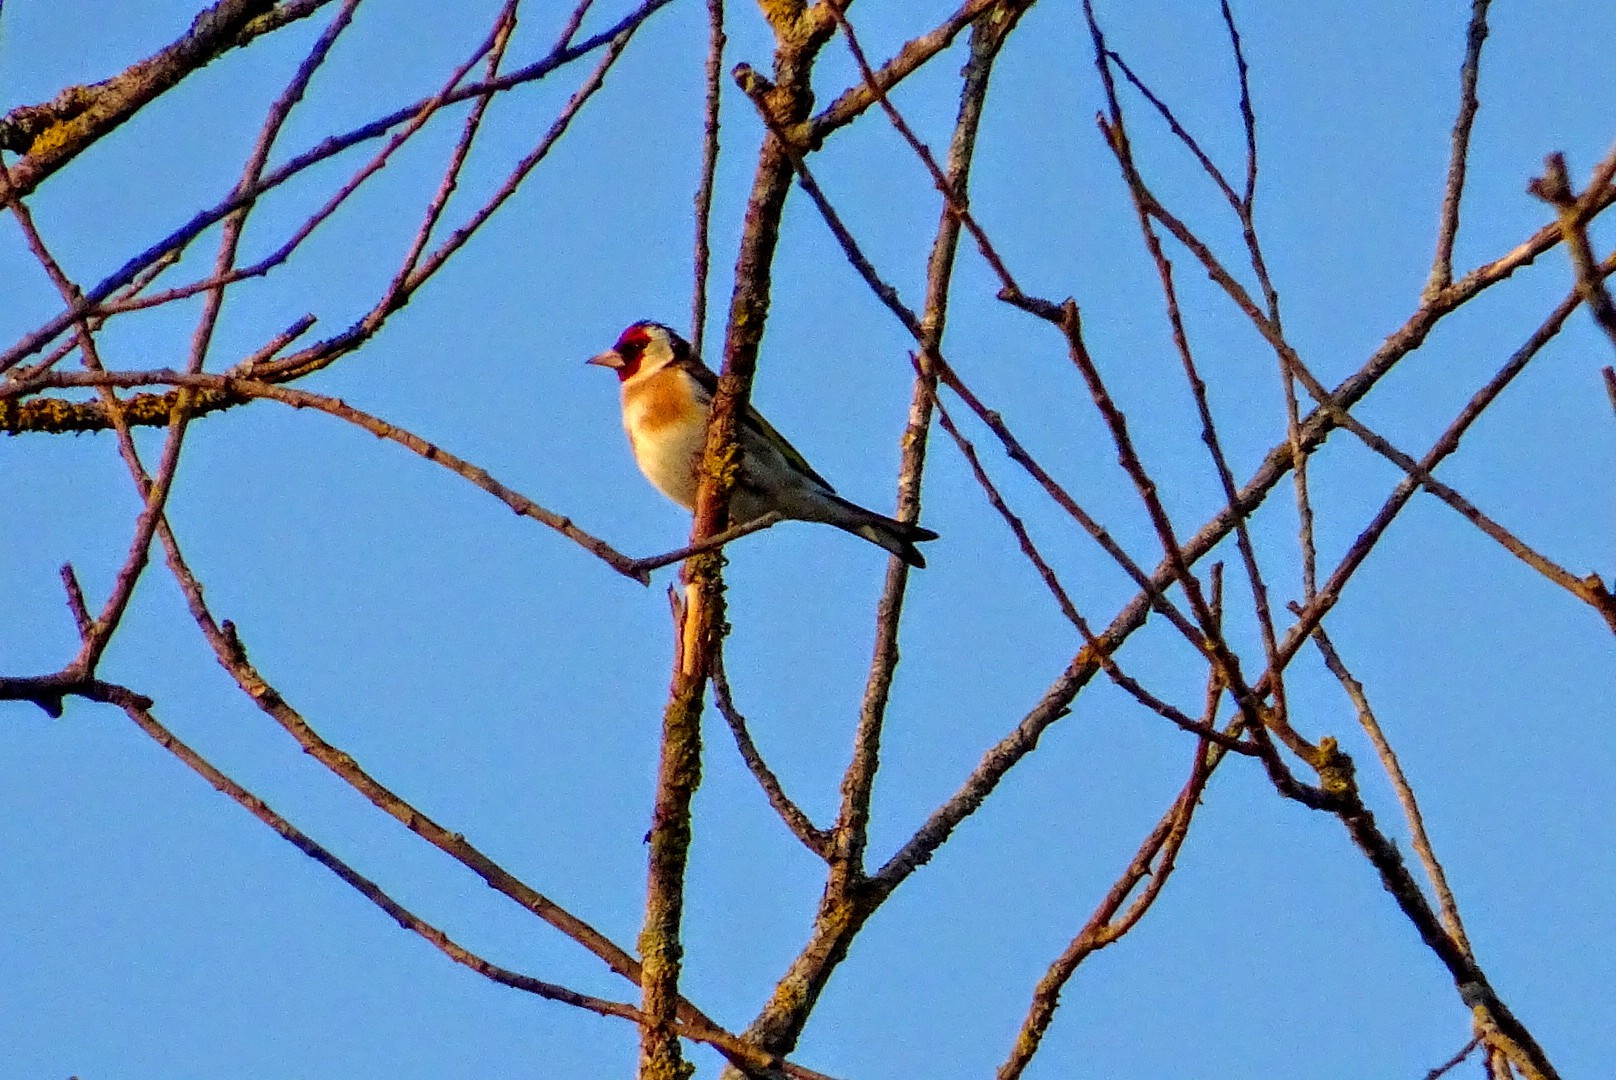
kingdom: Animalia
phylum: Chordata
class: Aves
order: Passeriformes
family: Fringillidae
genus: Carduelis
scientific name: Carduelis carduelis
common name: European goldfinch
